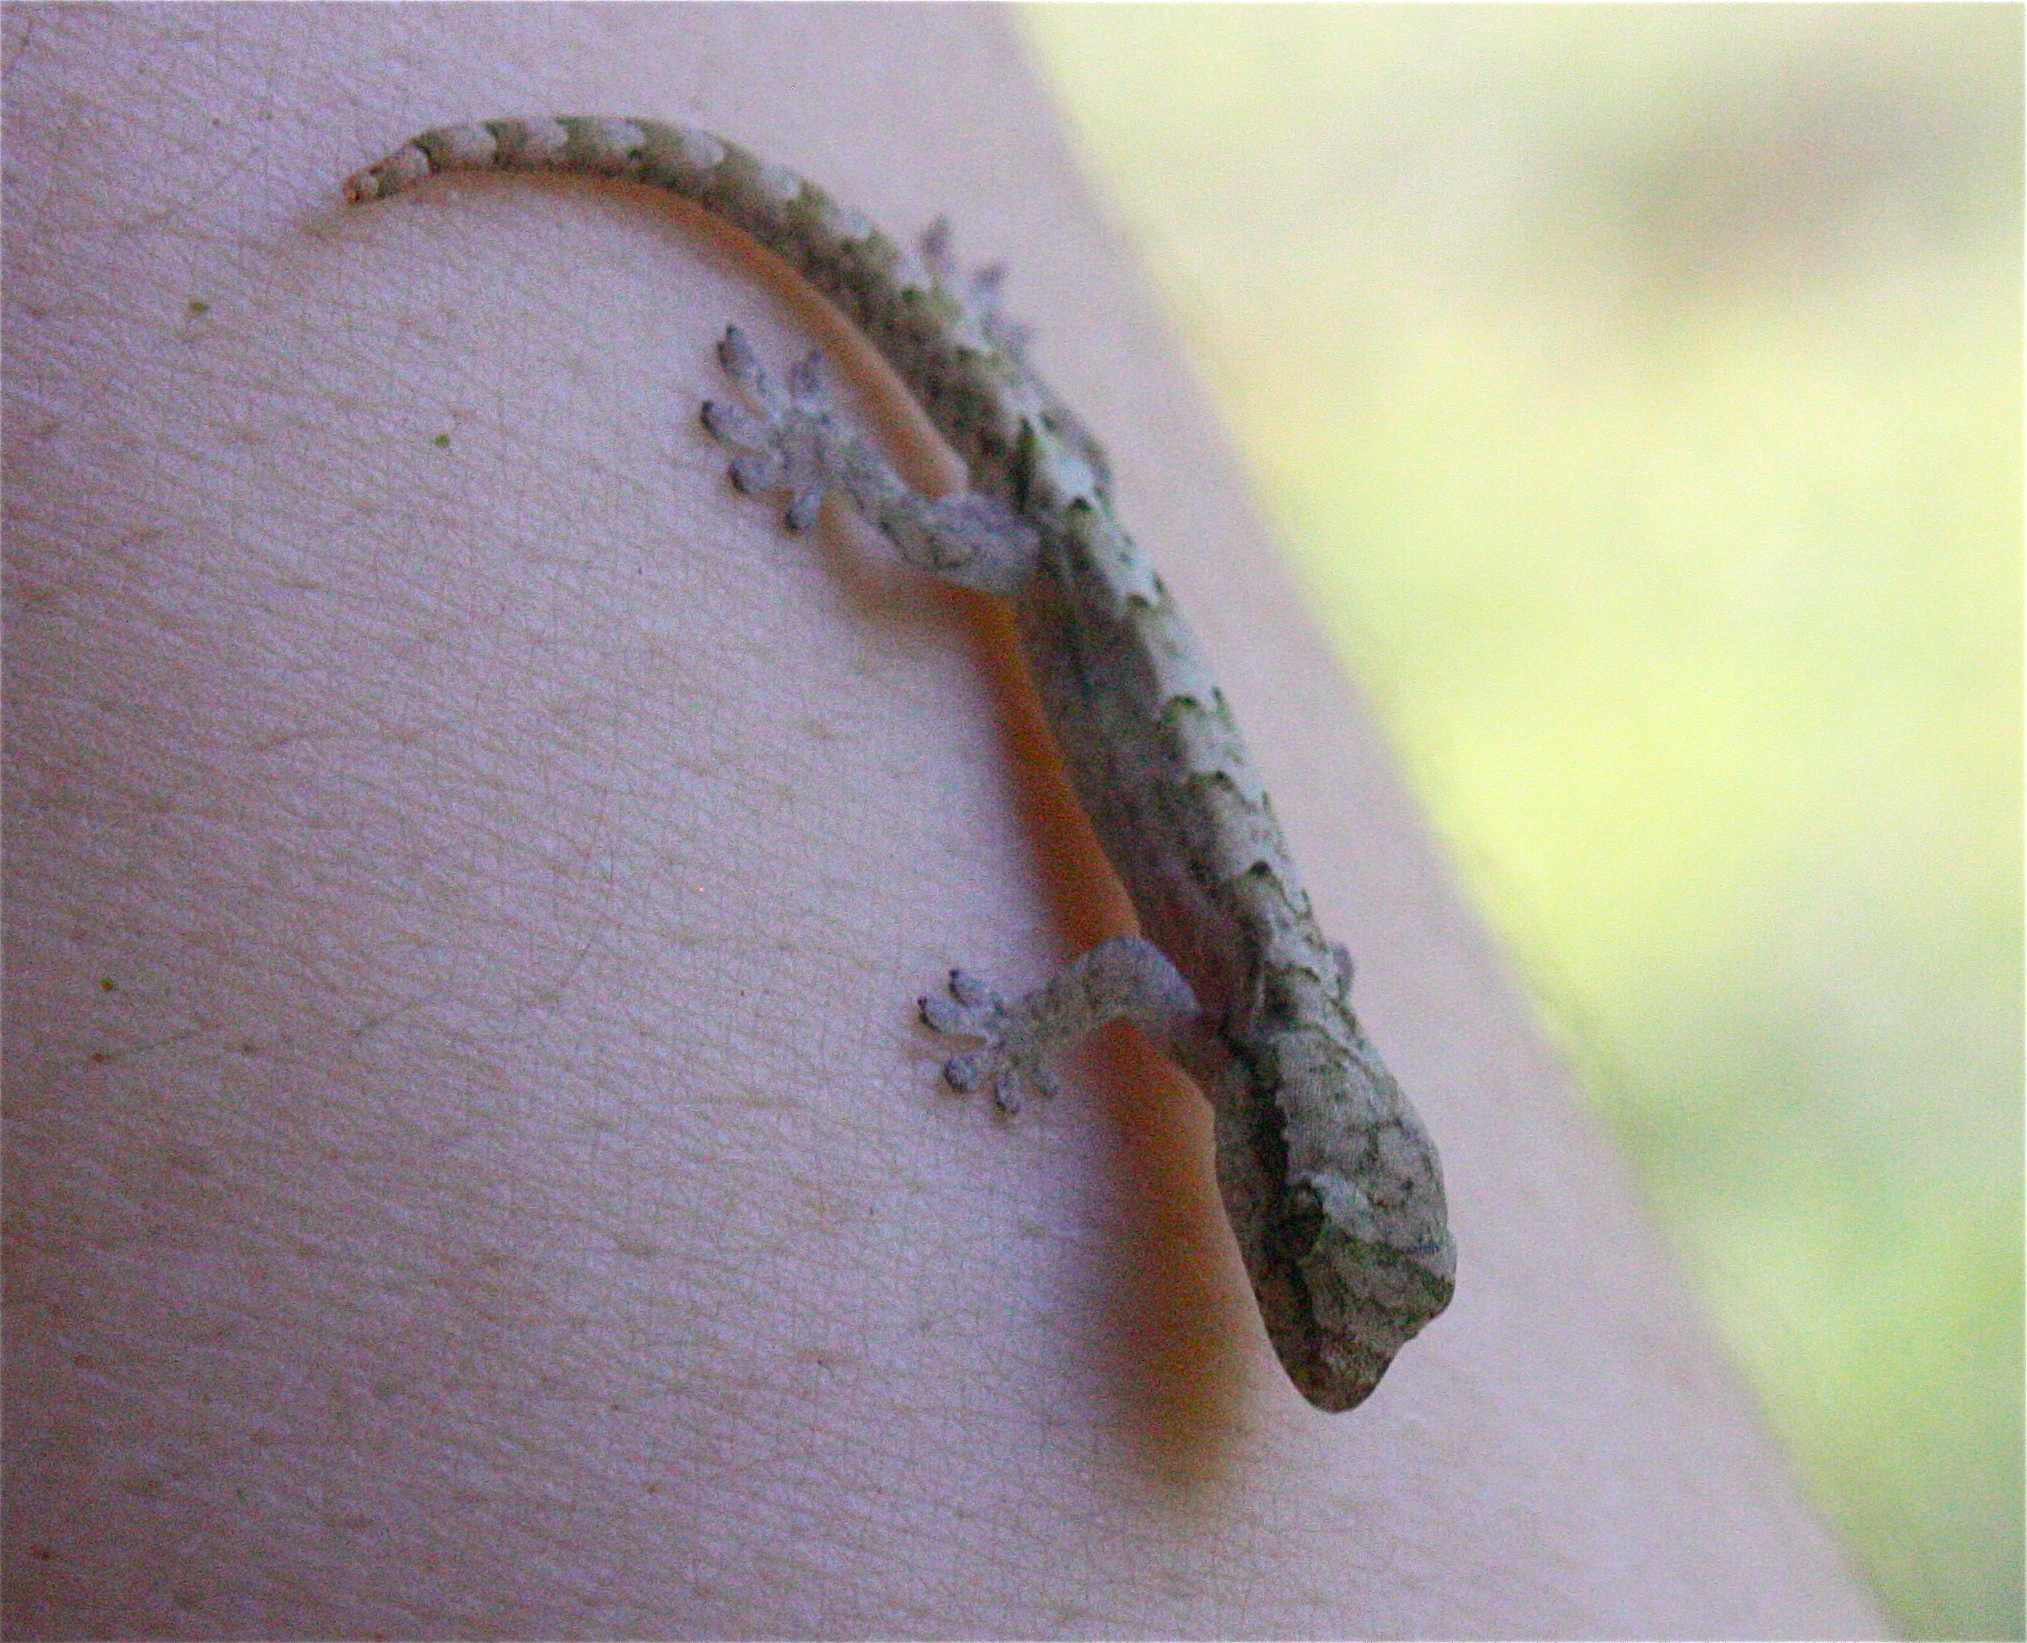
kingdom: Animalia
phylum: Chordata
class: Squamata
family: Gekkonidae
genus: Lepidodactylus
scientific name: Lepidodactylus lugubris
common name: Mourning gecko
